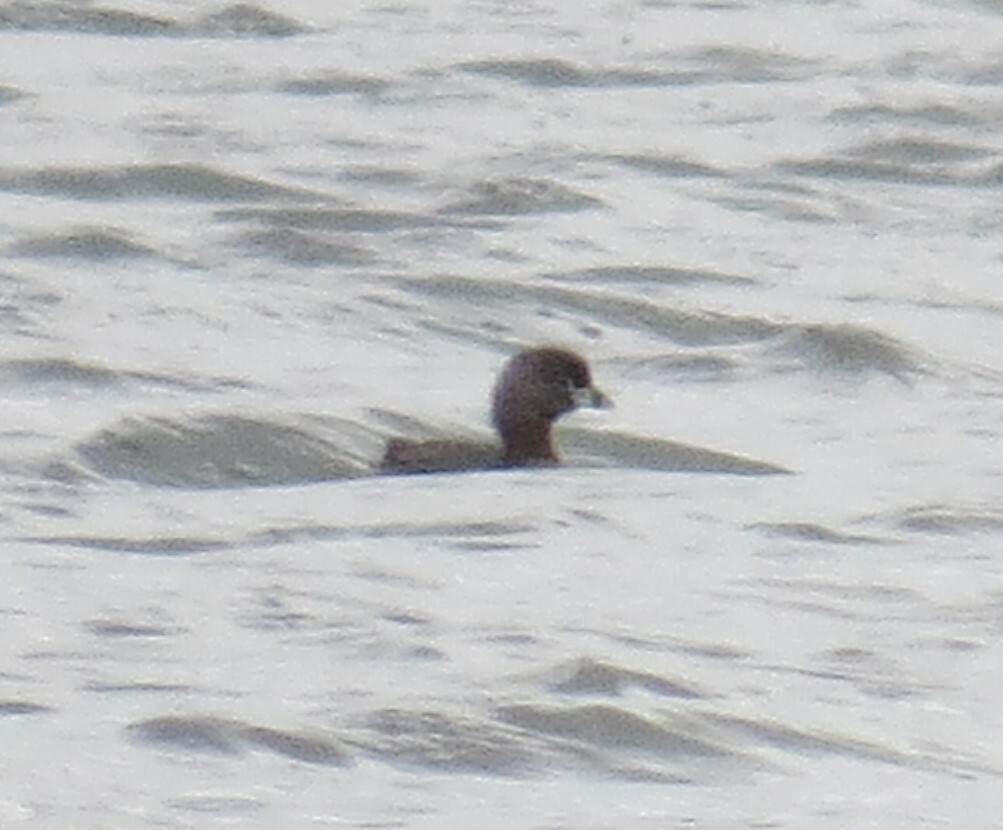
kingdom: Animalia
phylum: Chordata
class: Aves
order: Podicipediformes
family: Podicipedidae
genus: Podilymbus
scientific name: Podilymbus podiceps
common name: Pied-billed grebe
